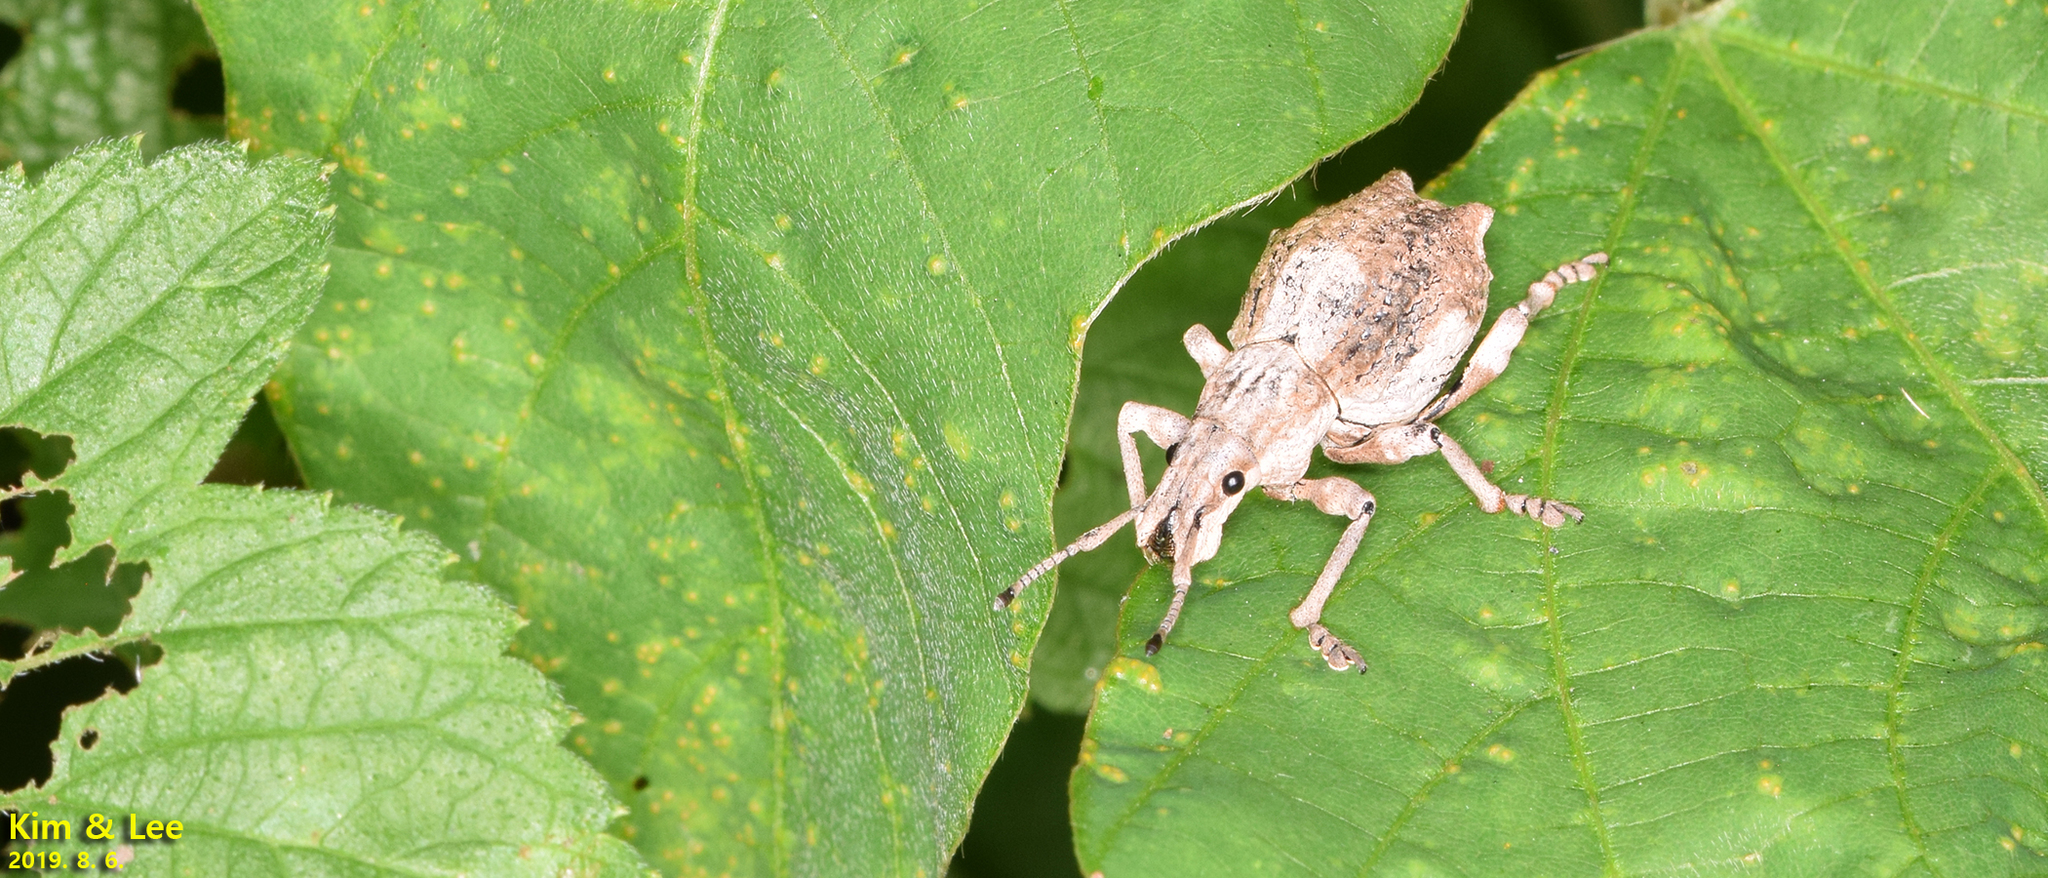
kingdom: Animalia
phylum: Arthropoda
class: Insecta
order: Coleoptera
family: Curculionidae
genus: Episomus
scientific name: Episomus turritus
